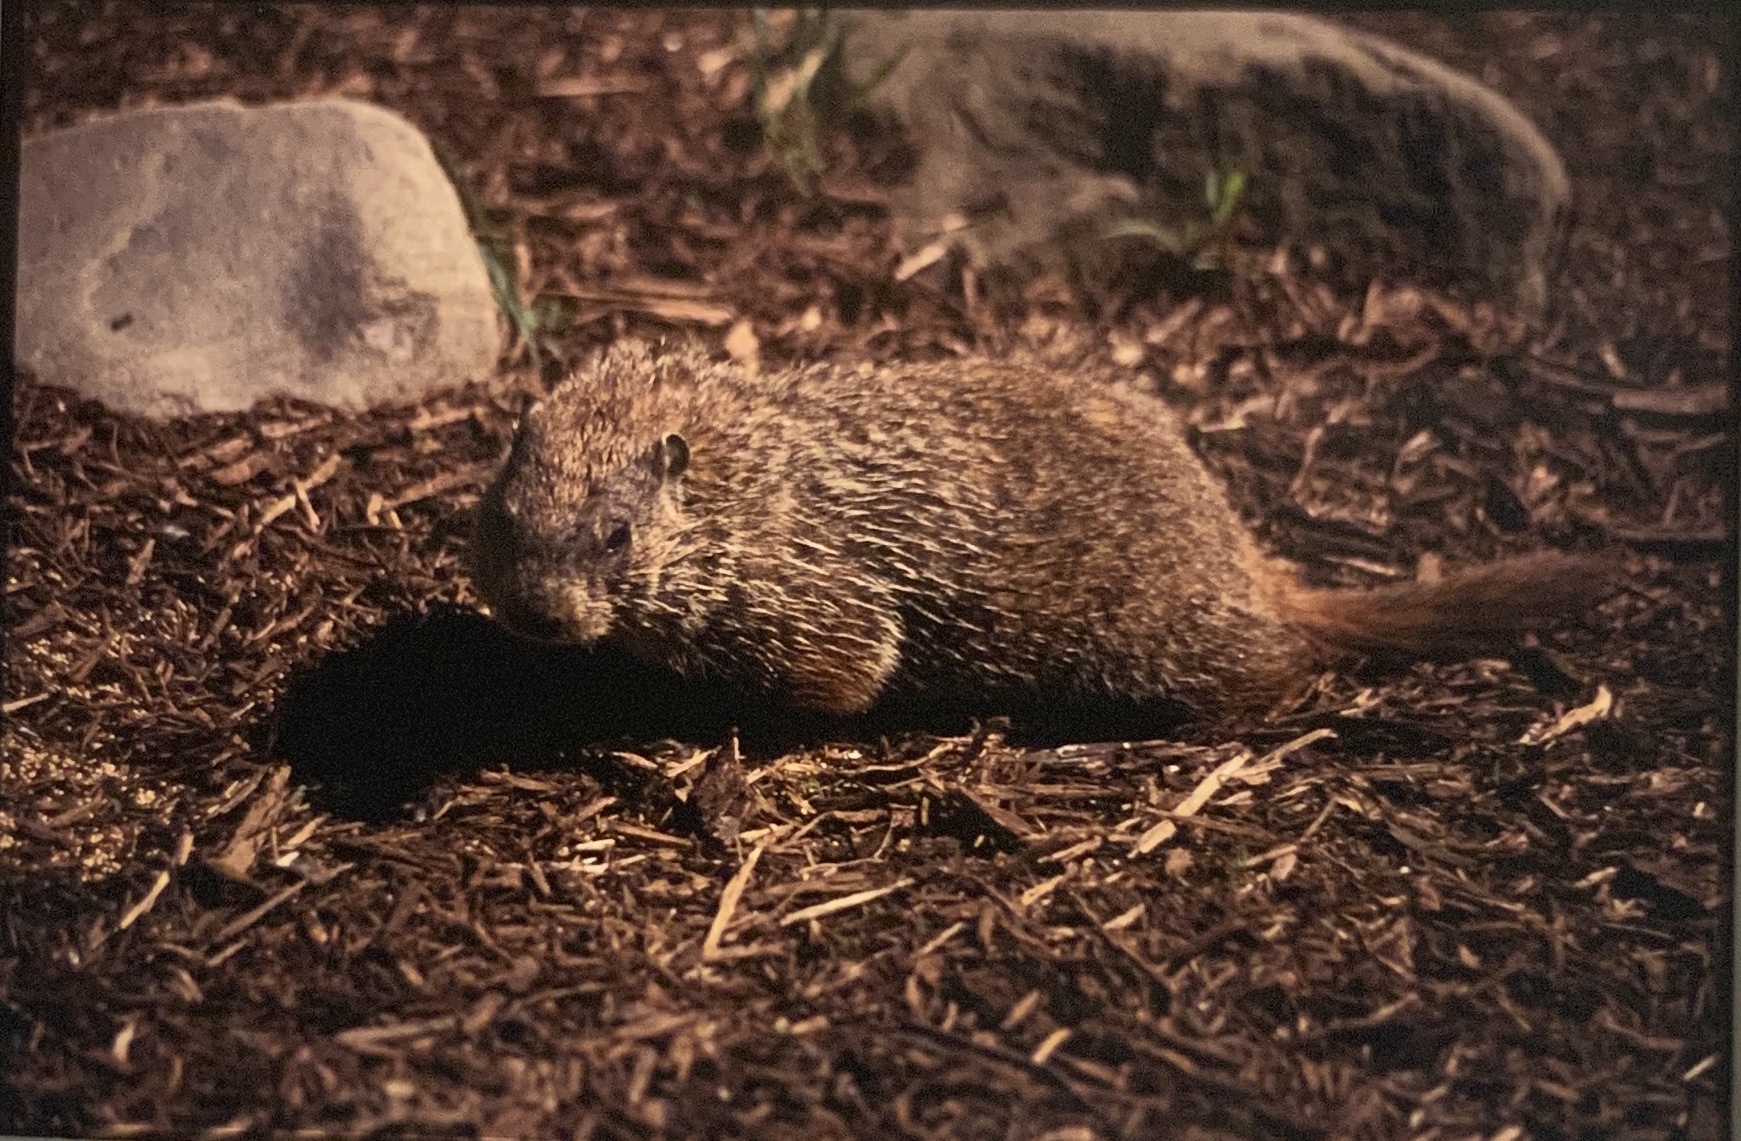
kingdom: Animalia
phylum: Chordata
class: Mammalia
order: Rodentia
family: Sciuridae
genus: Marmota
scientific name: Marmota monax
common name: Groundhog
